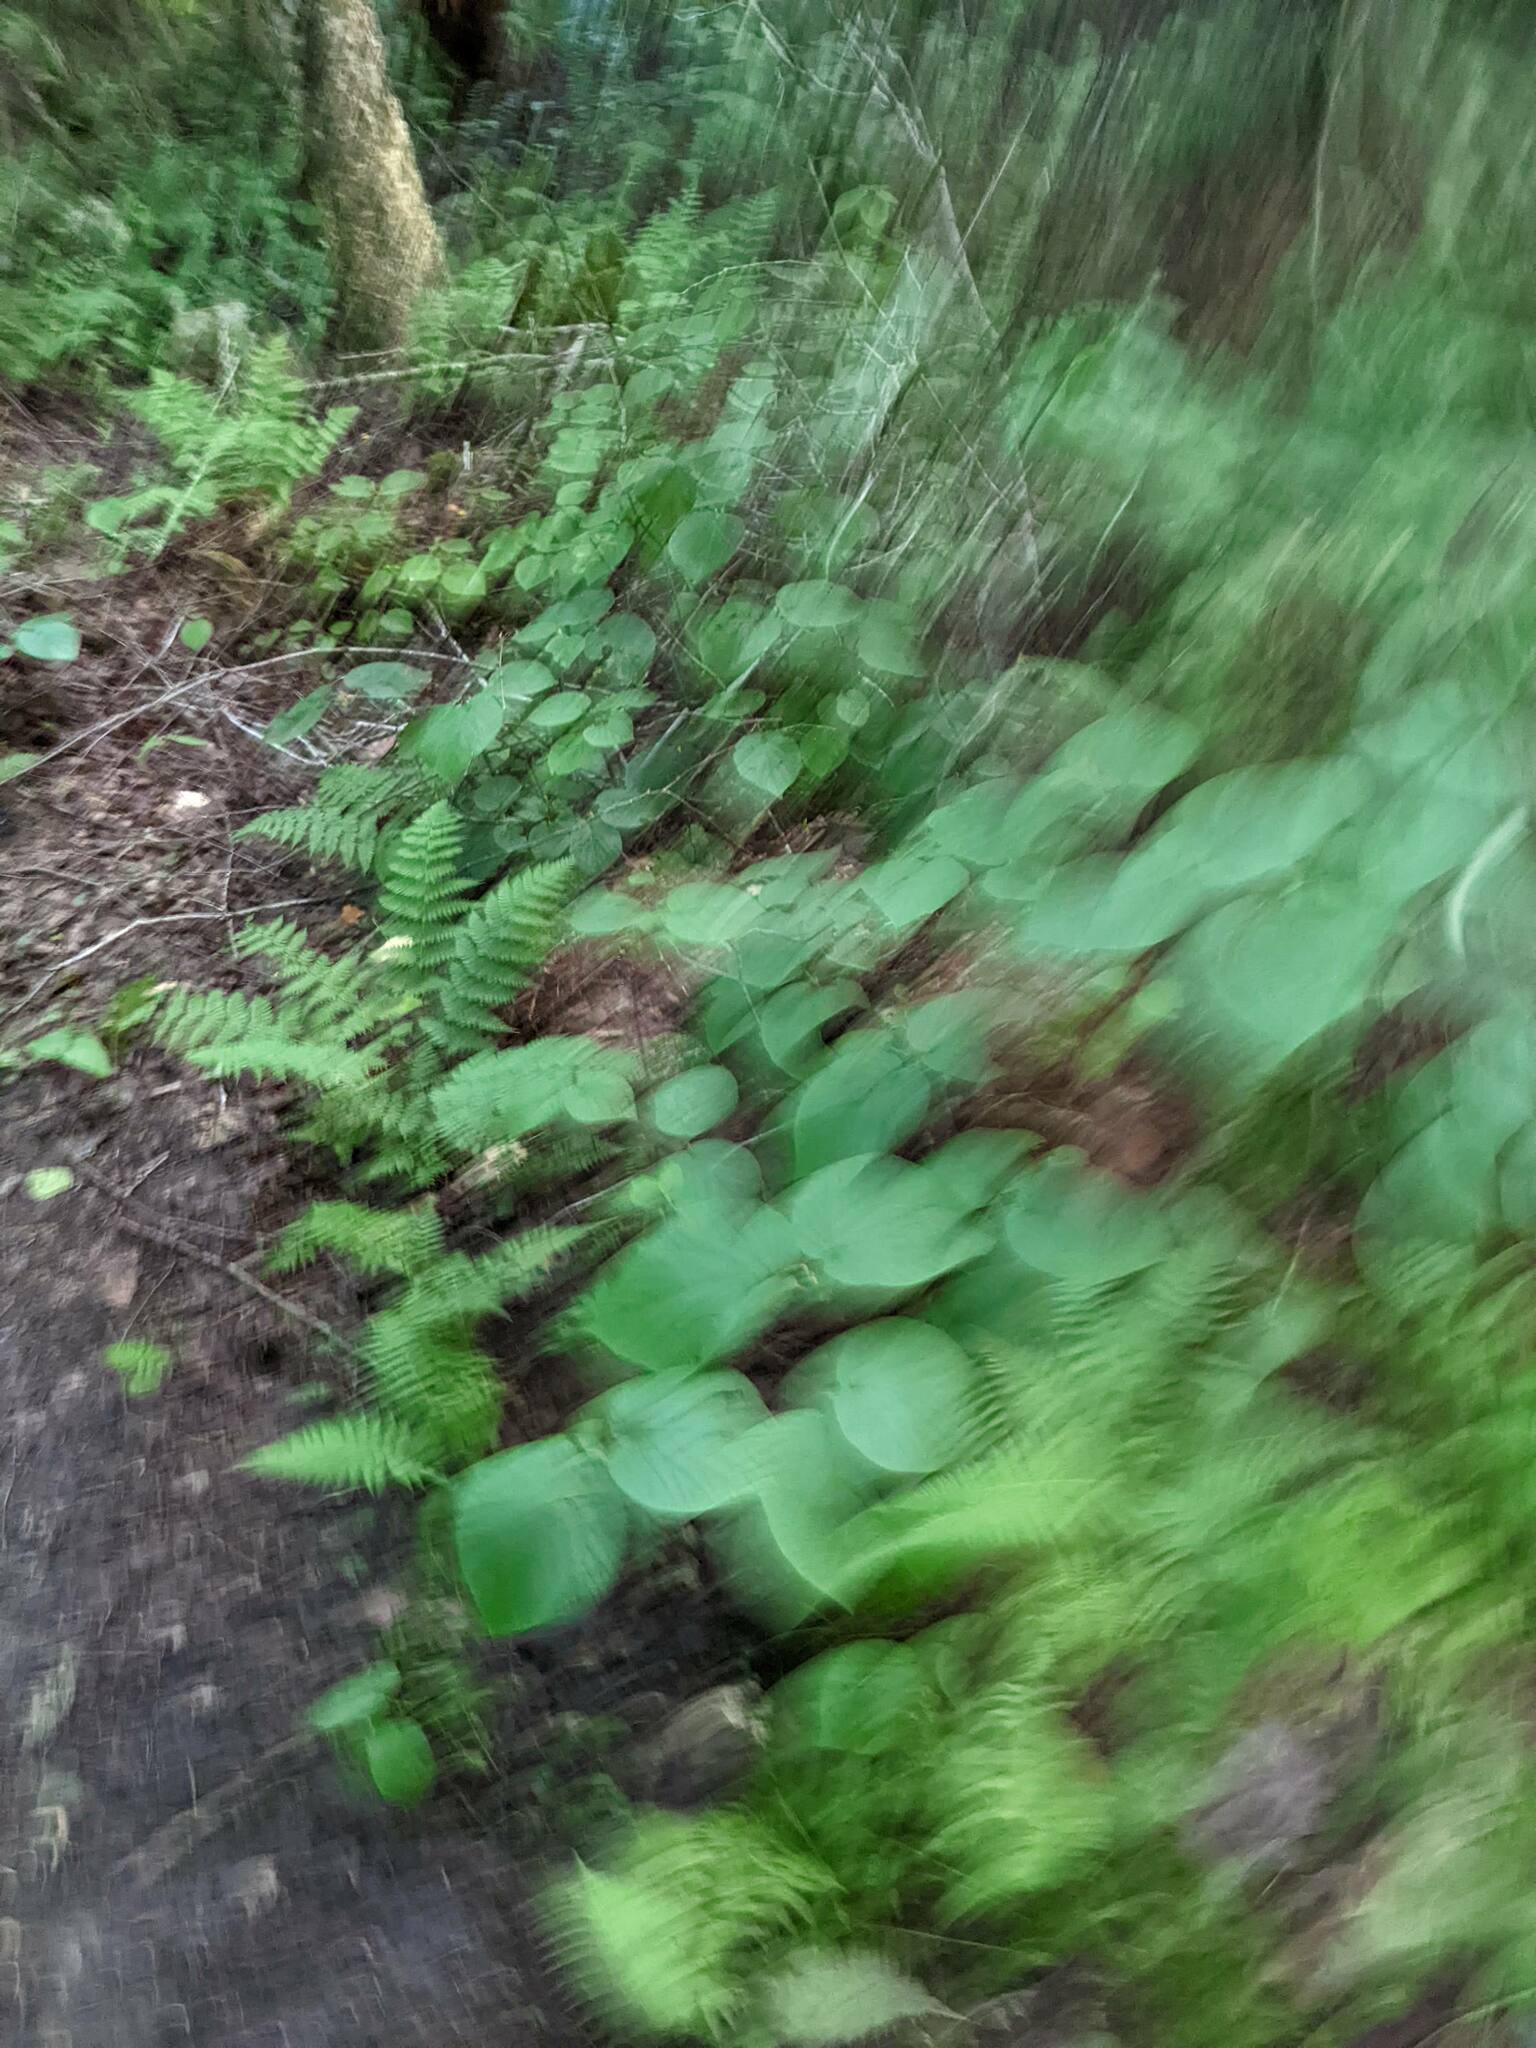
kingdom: Plantae
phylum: Tracheophyta
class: Magnoliopsida
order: Dipsacales
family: Viburnaceae
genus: Viburnum
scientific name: Viburnum lantanoides
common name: Hobblebush
